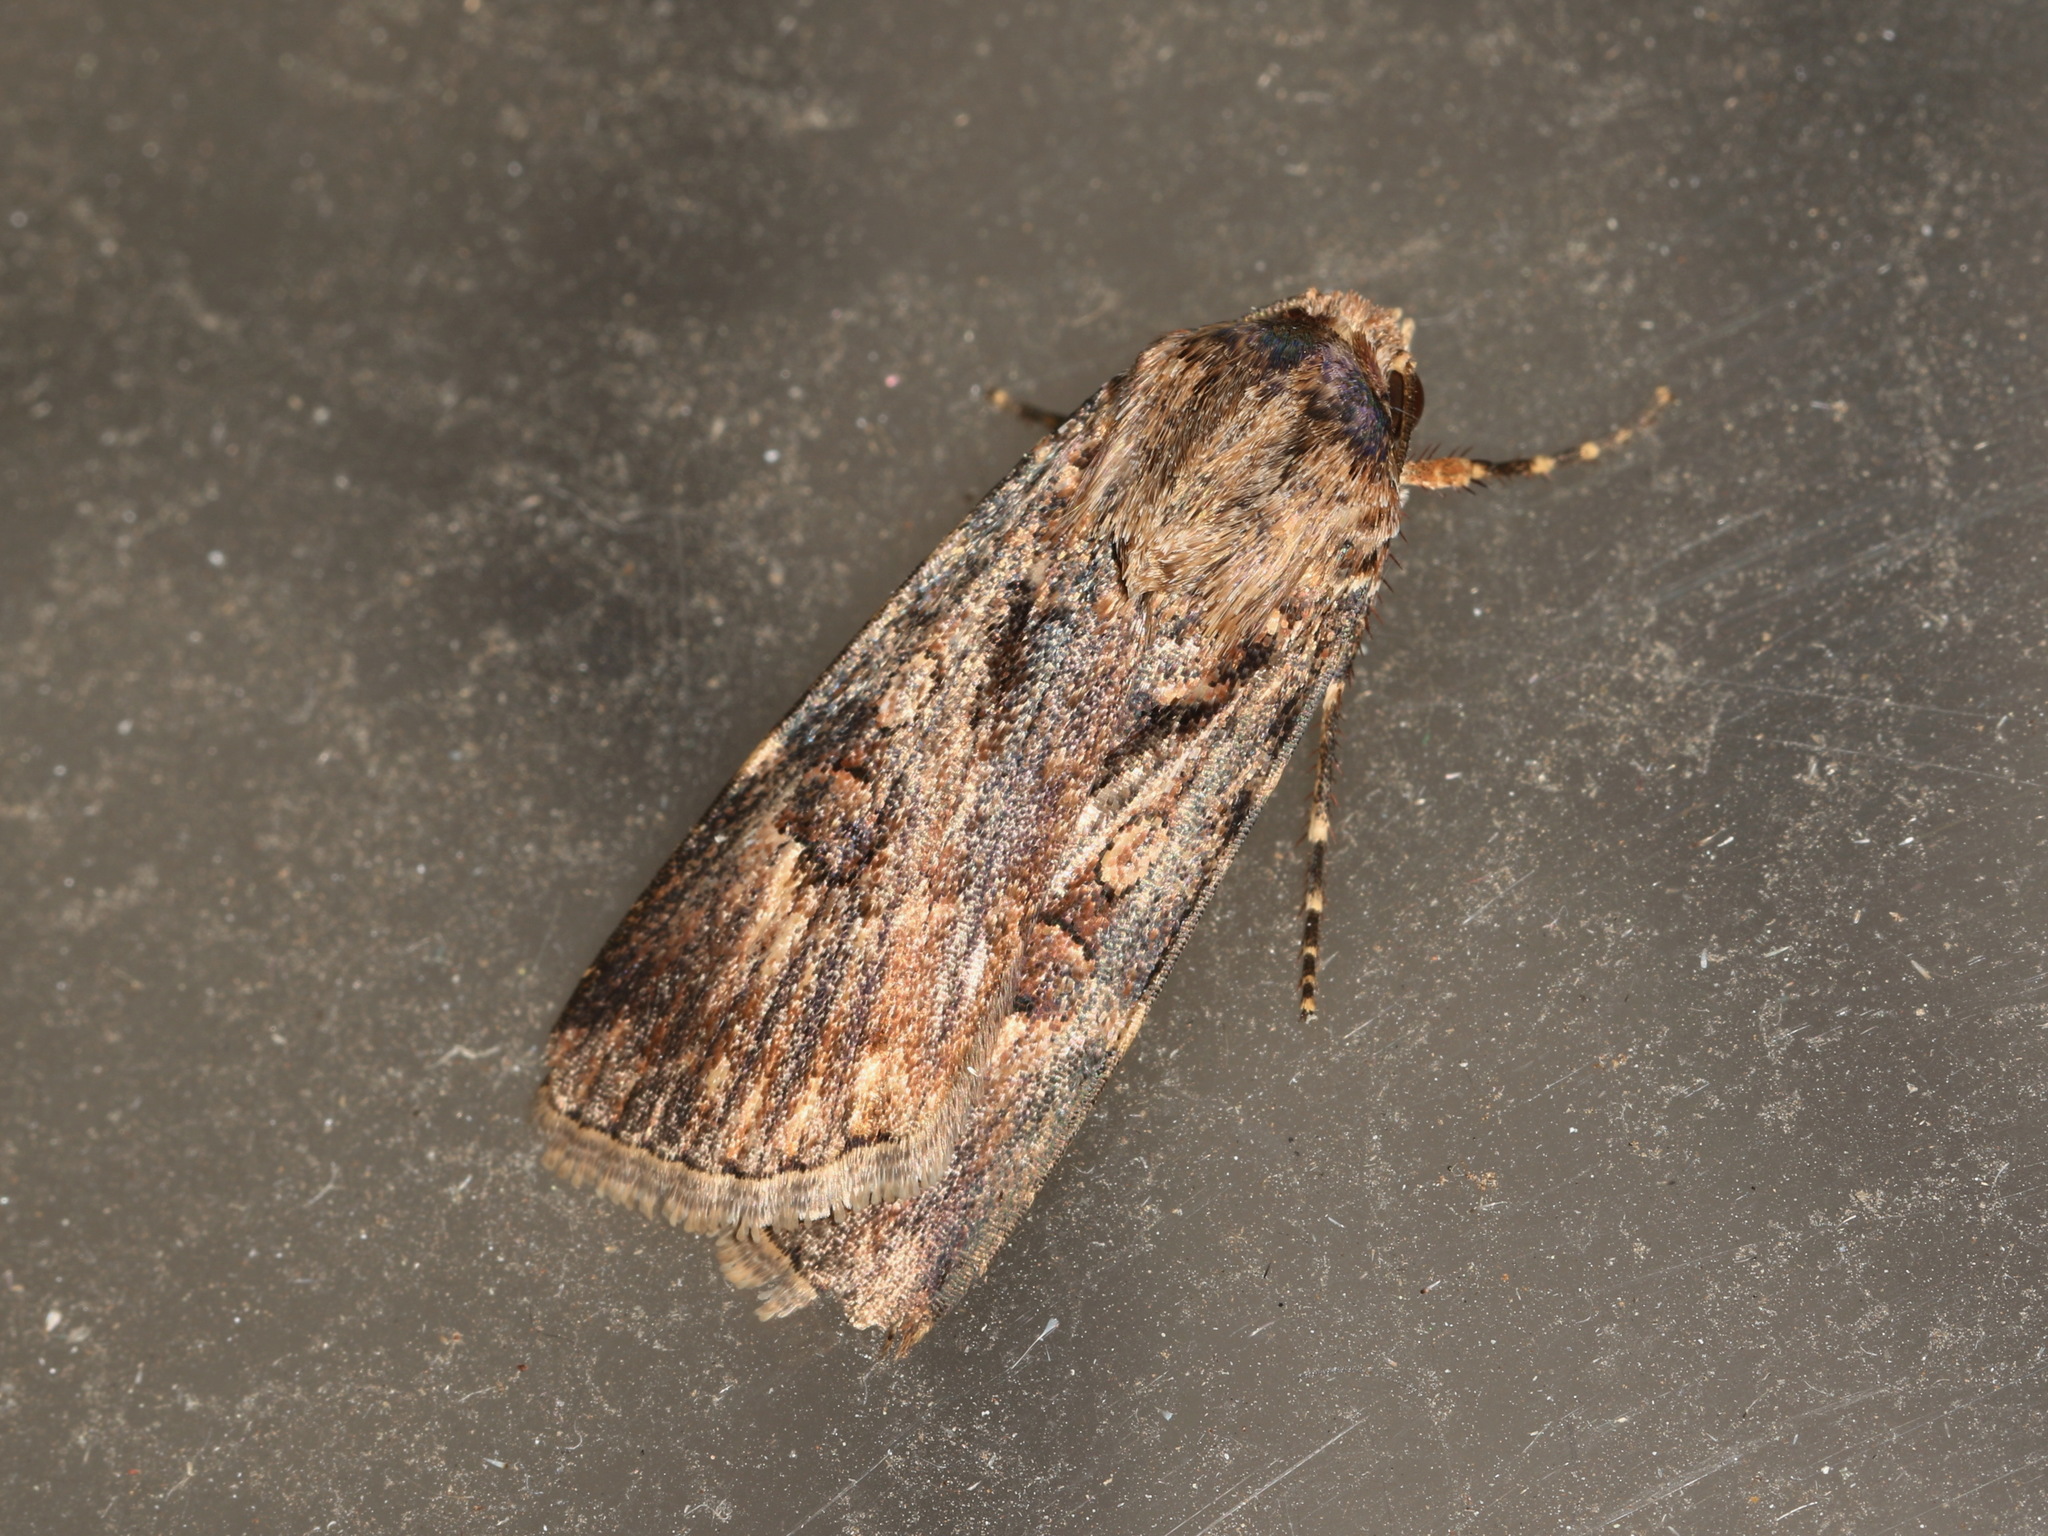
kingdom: Animalia
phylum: Arthropoda
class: Insecta
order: Lepidoptera
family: Noctuidae
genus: Agrotis
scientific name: Agrotis munda
